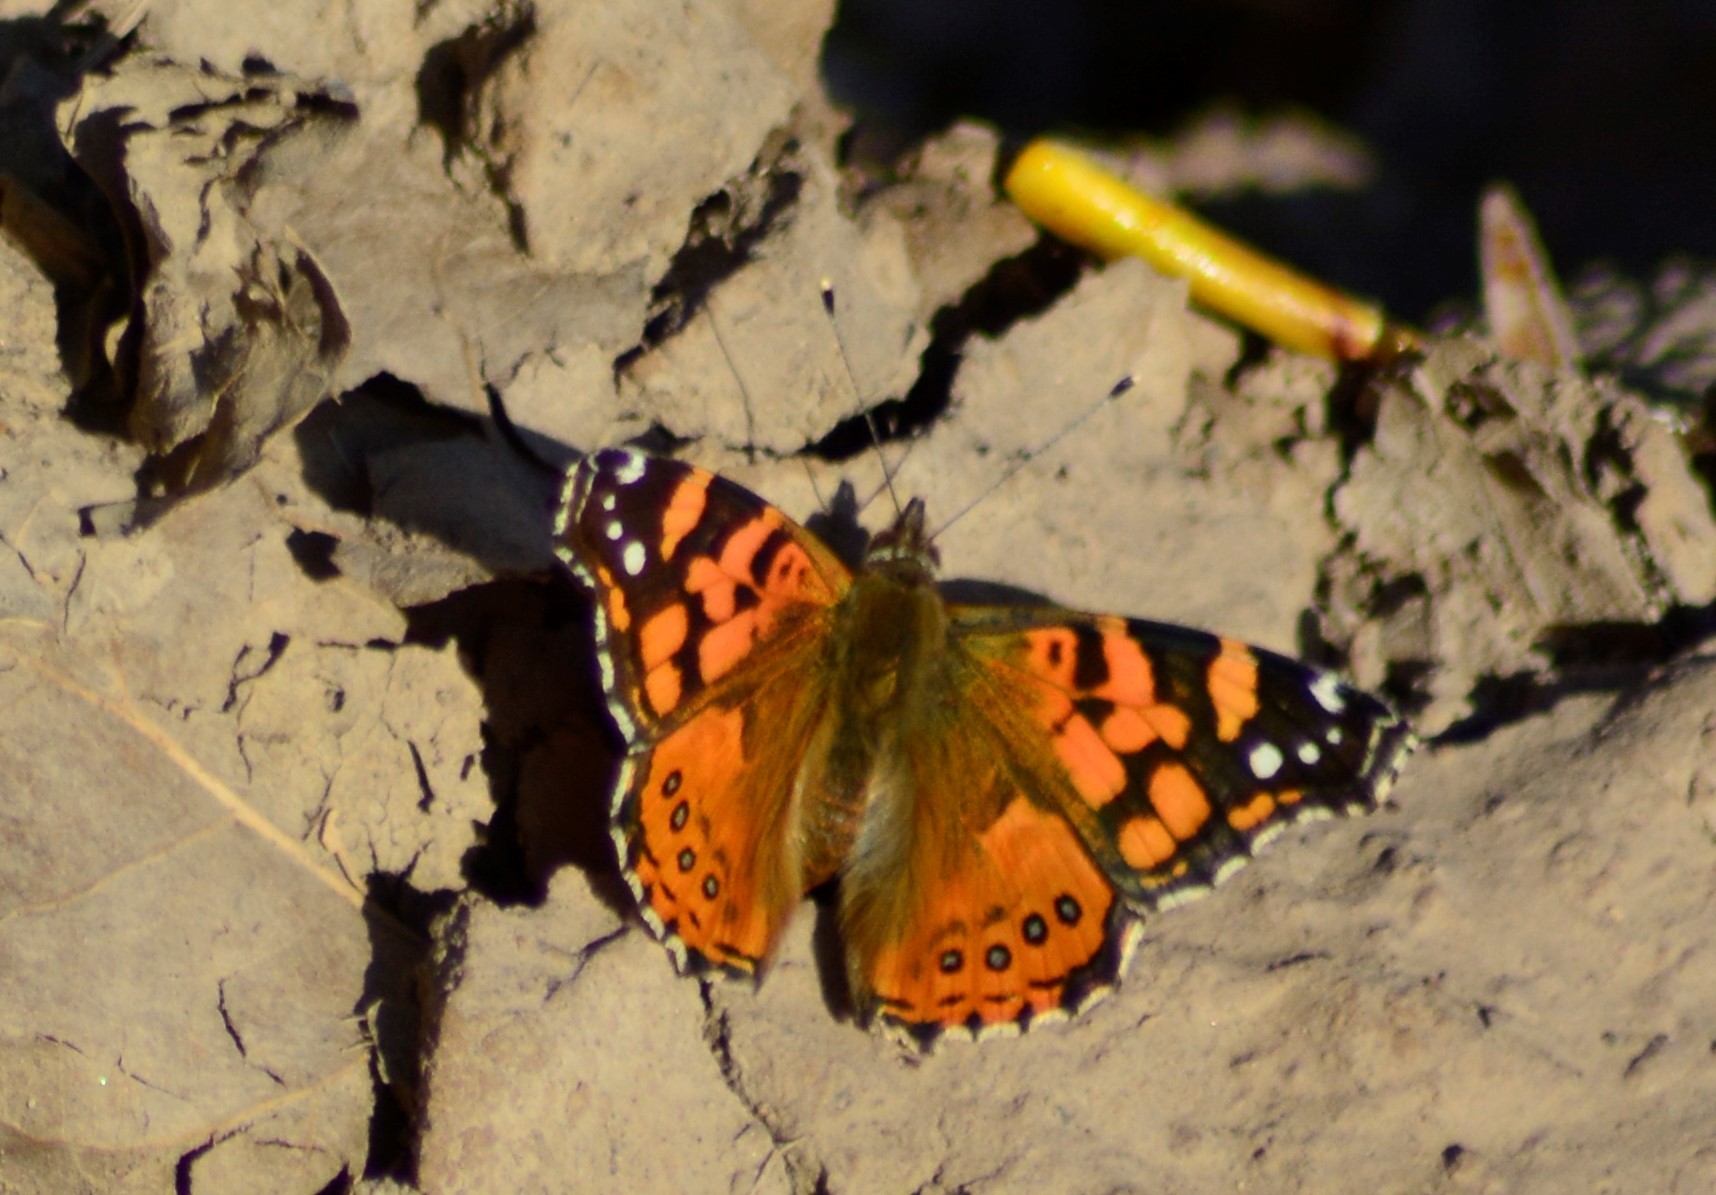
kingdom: Animalia
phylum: Arthropoda
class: Insecta
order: Lepidoptera
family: Nymphalidae
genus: Vanessa
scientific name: Vanessa carye
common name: Subtropical lady
